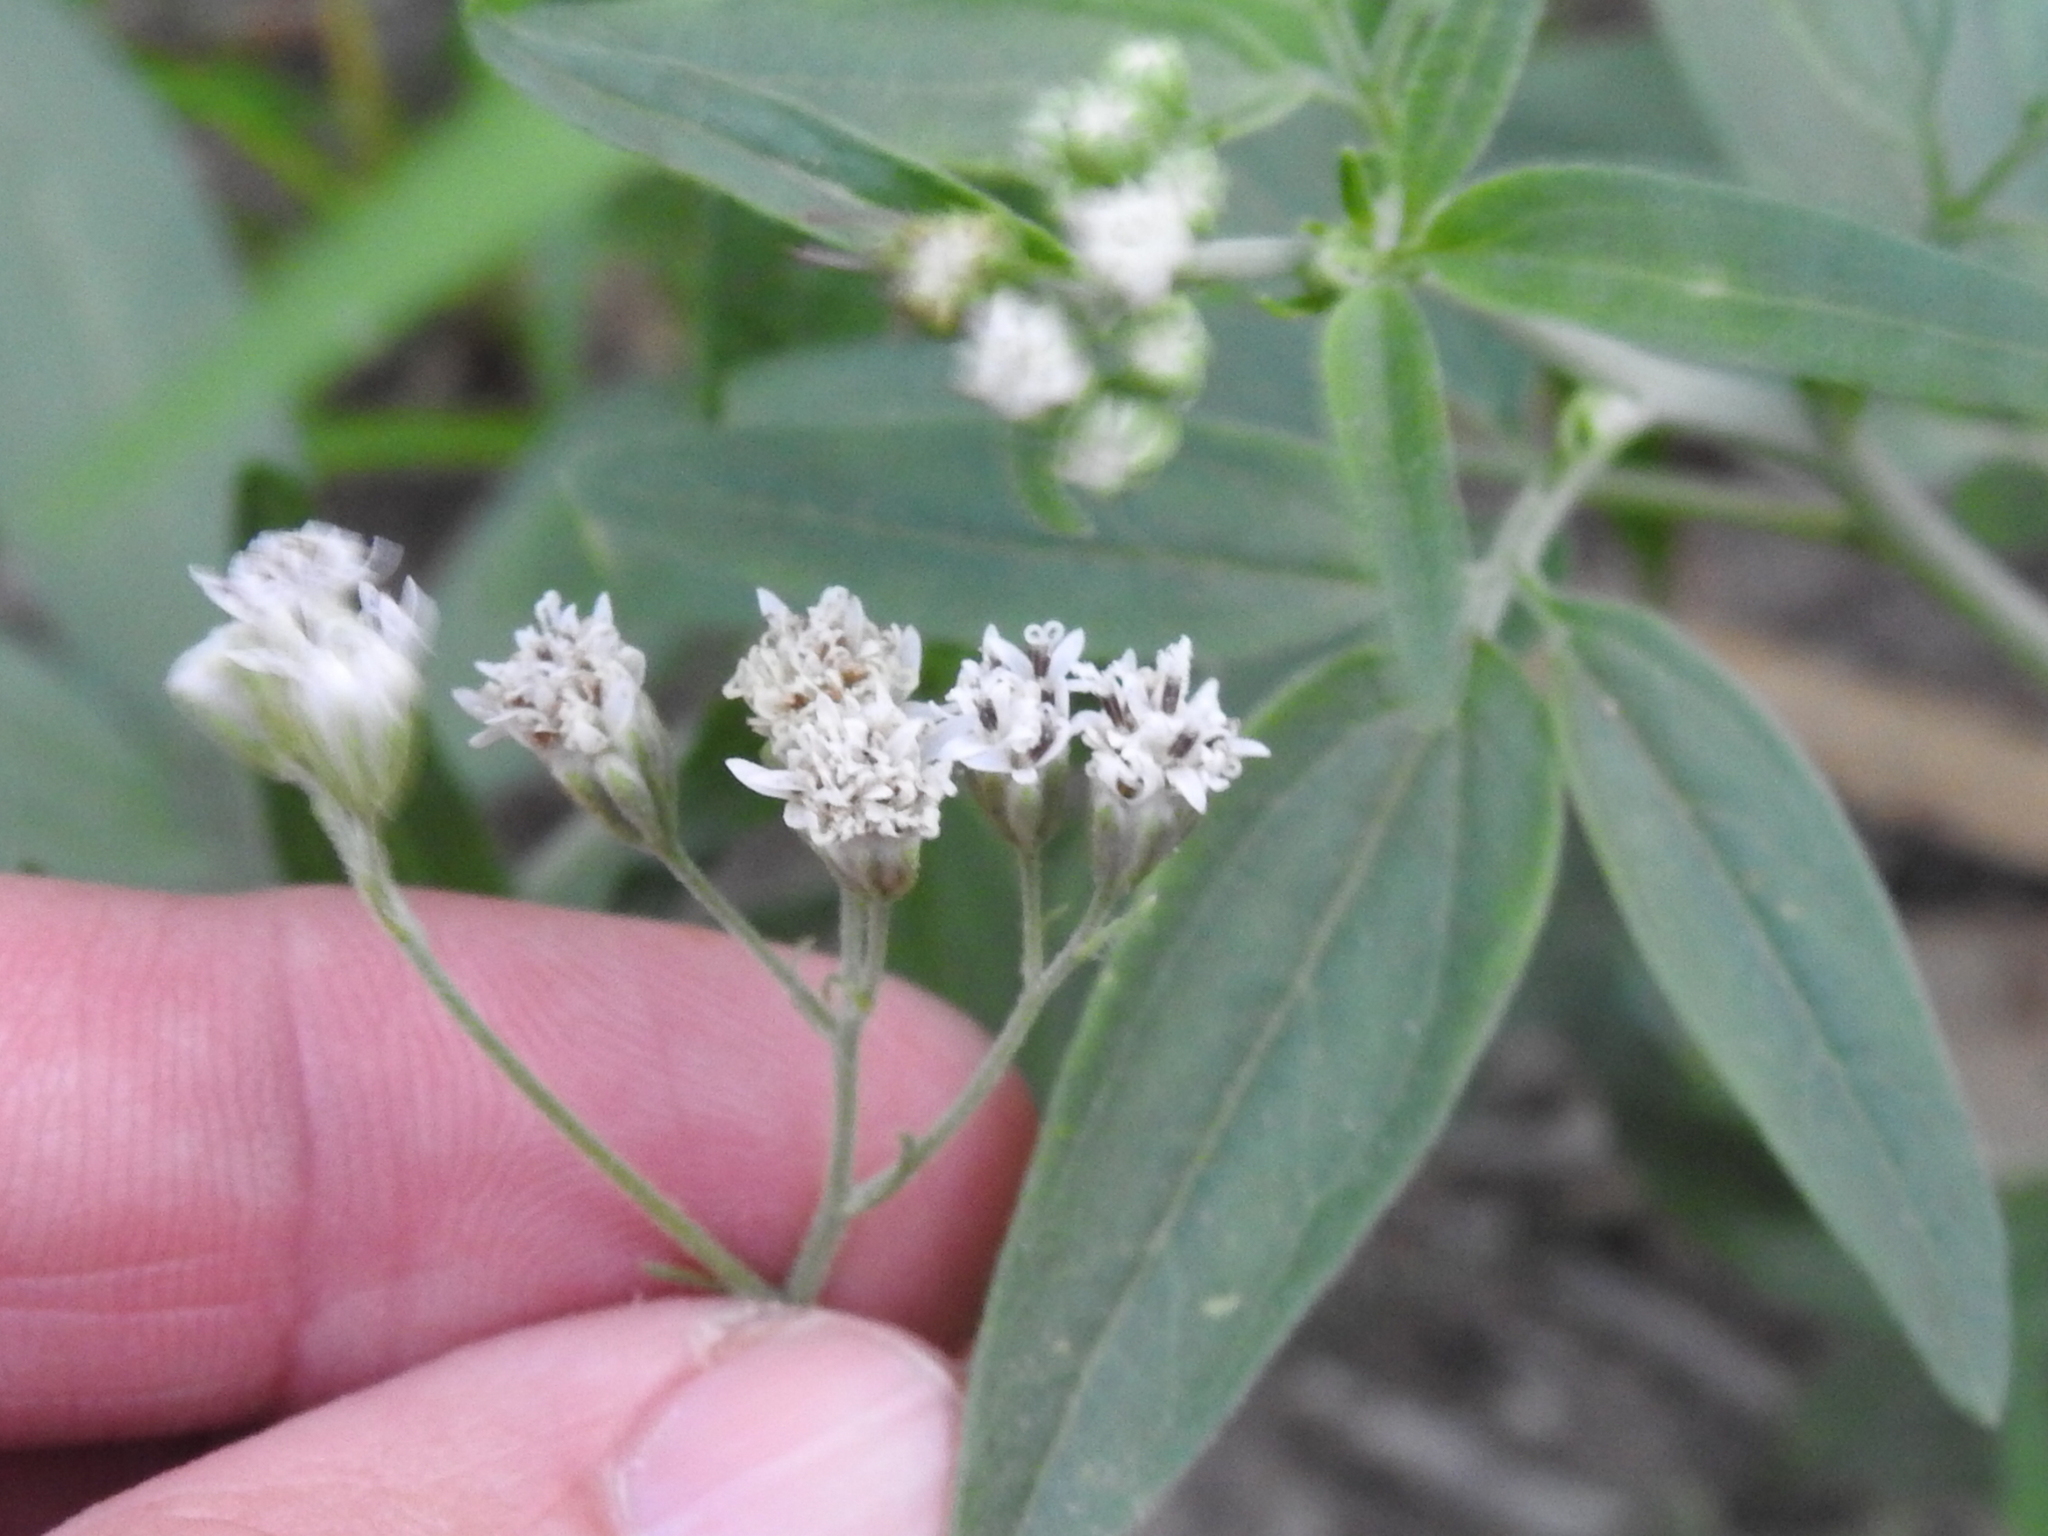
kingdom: Plantae
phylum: Tracheophyta
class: Magnoliopsida
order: Asterales
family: Asteraceae
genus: Florestina
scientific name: Florestina tripteris
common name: Sticky florestina
